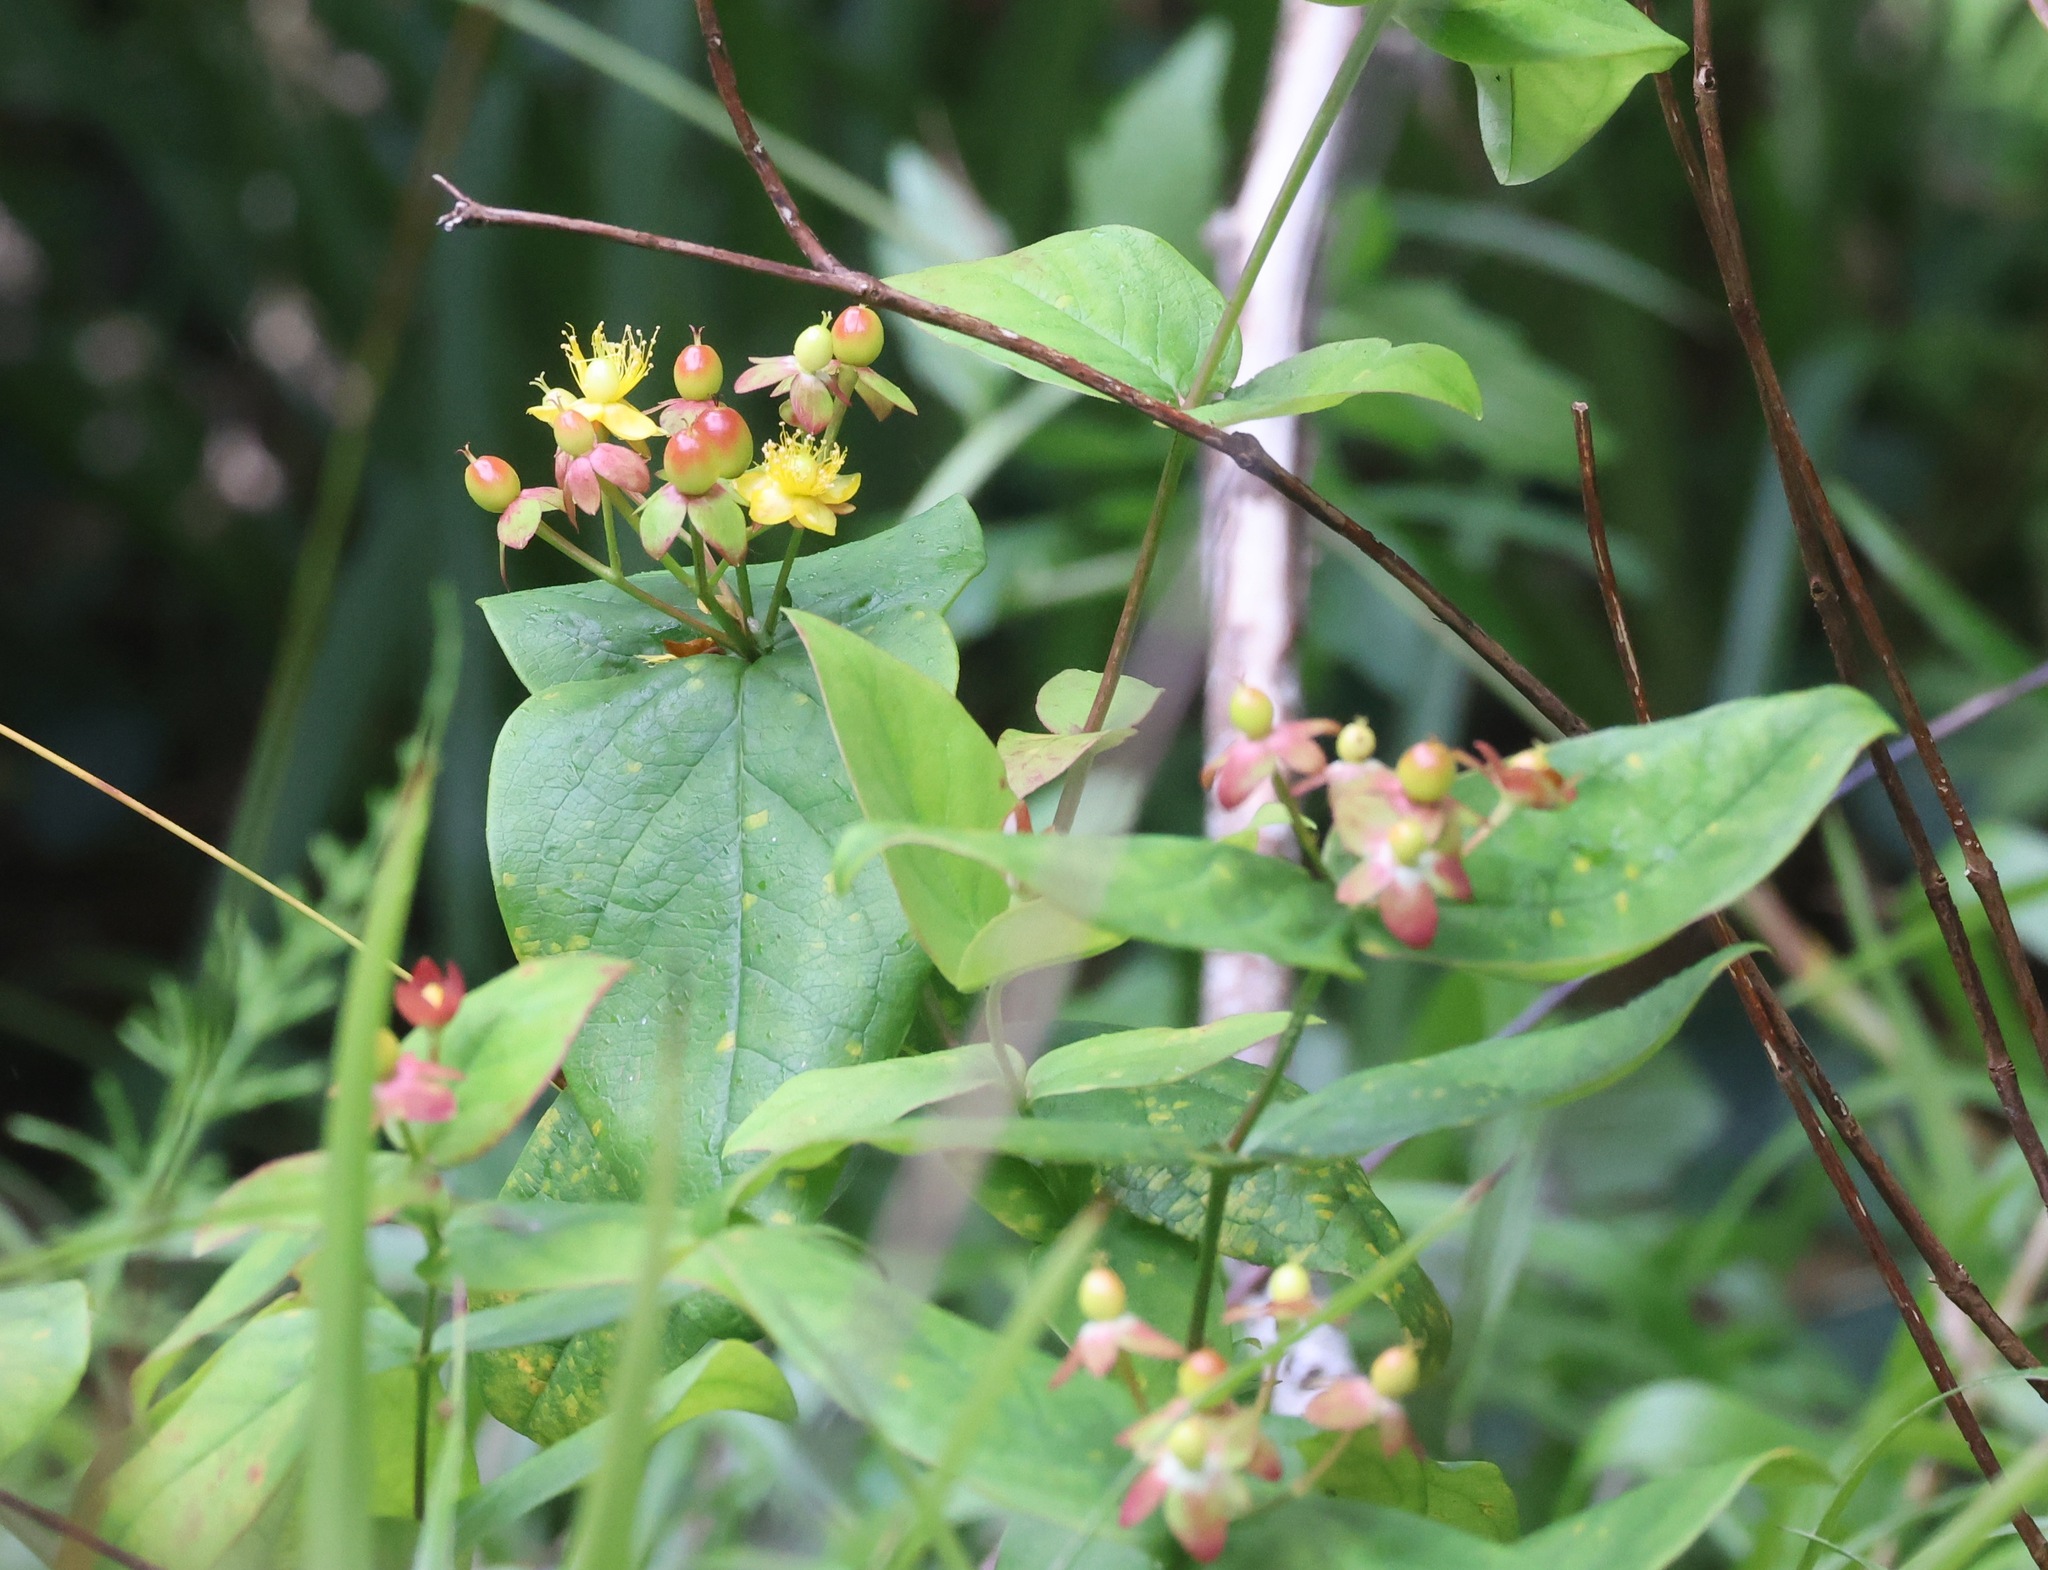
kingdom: Plantae
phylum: Tracheophyta
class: Magnoliopsida
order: Malpighiales
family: Hypericaceae
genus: Hypericum
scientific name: Hypericum androsaemum
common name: Sweet-amber
